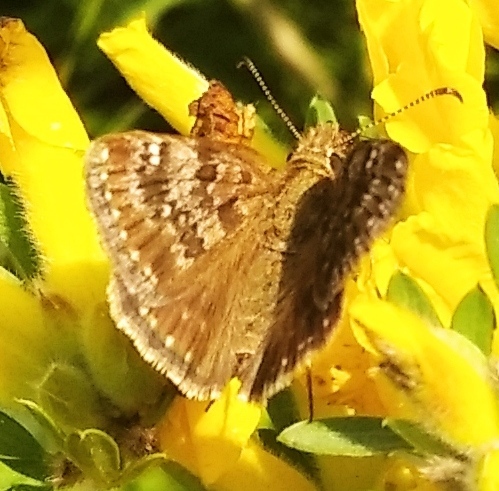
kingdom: Animalia
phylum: Arthropoda
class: Insecta
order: Lepidoptera
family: Hesperiidae
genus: Erynnis
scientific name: Erynnis tages
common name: Dingy skipper
